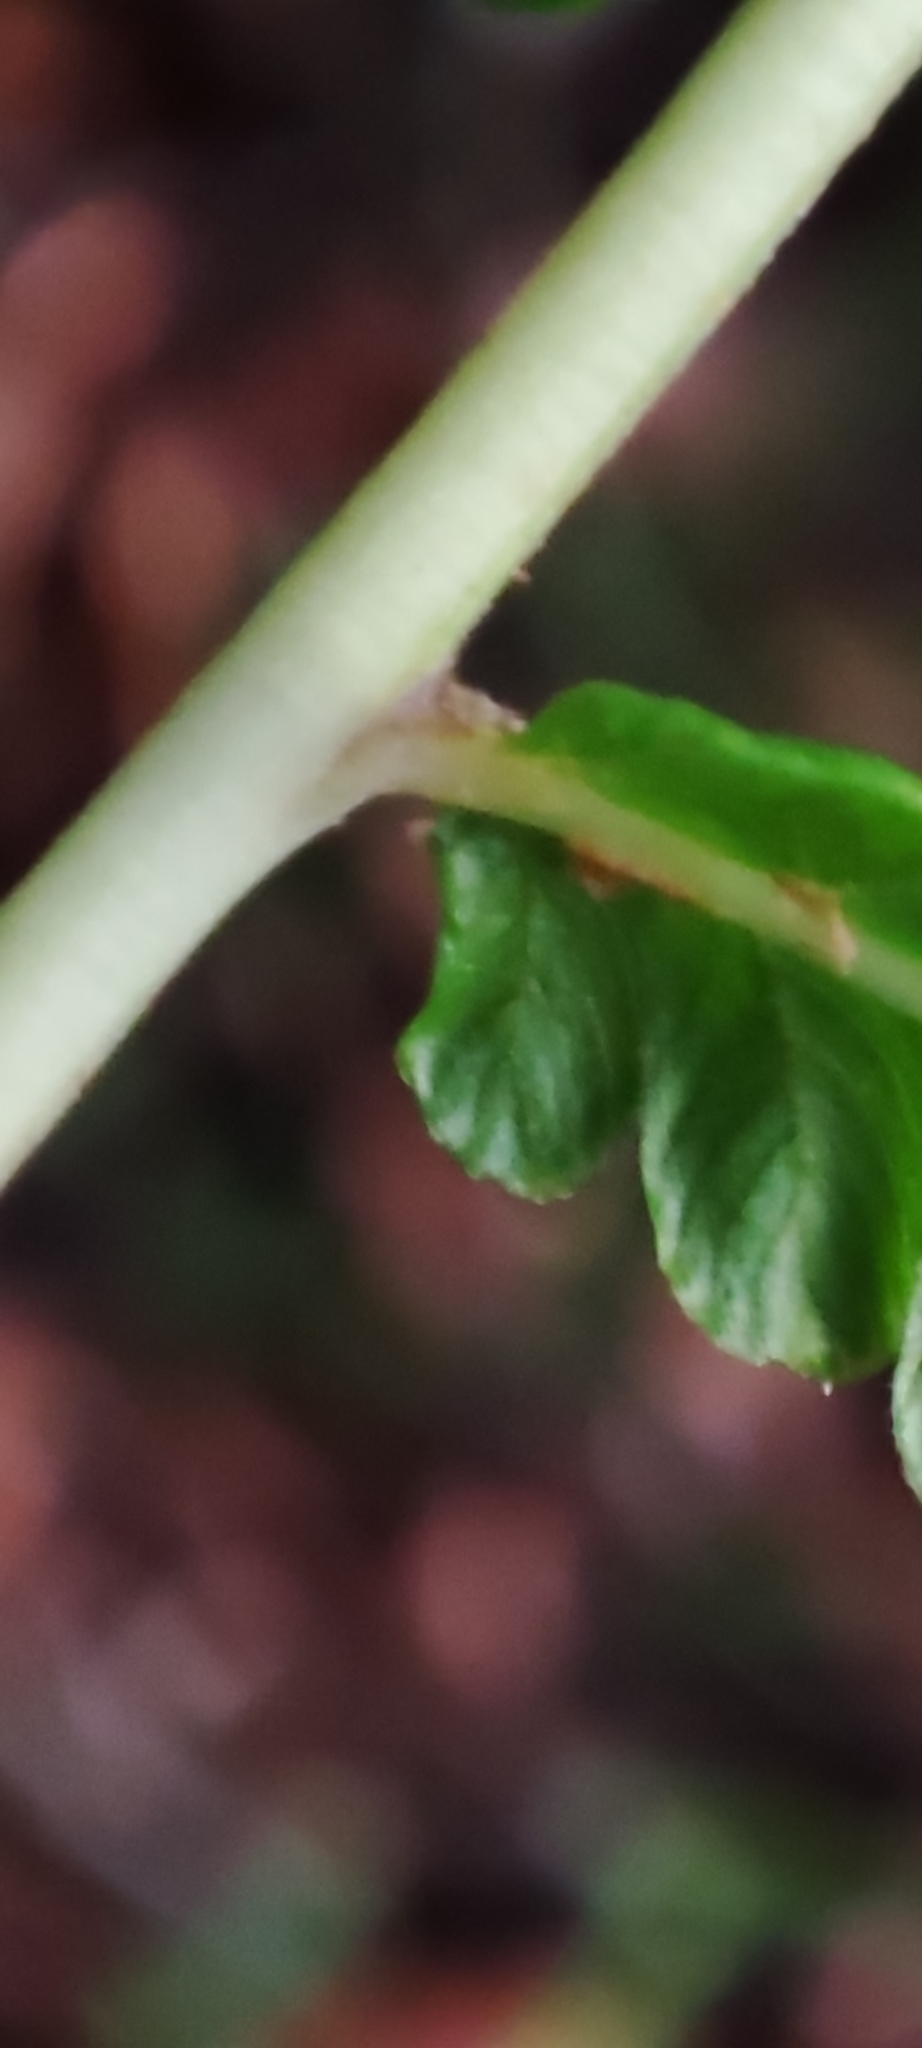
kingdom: Plantae
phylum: Tracheophyta
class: Polypodiopsida
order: Polypodiales
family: Thelypteridaceae
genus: Cyclosorus
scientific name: Cyclosorus interruptus
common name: Neke fern
